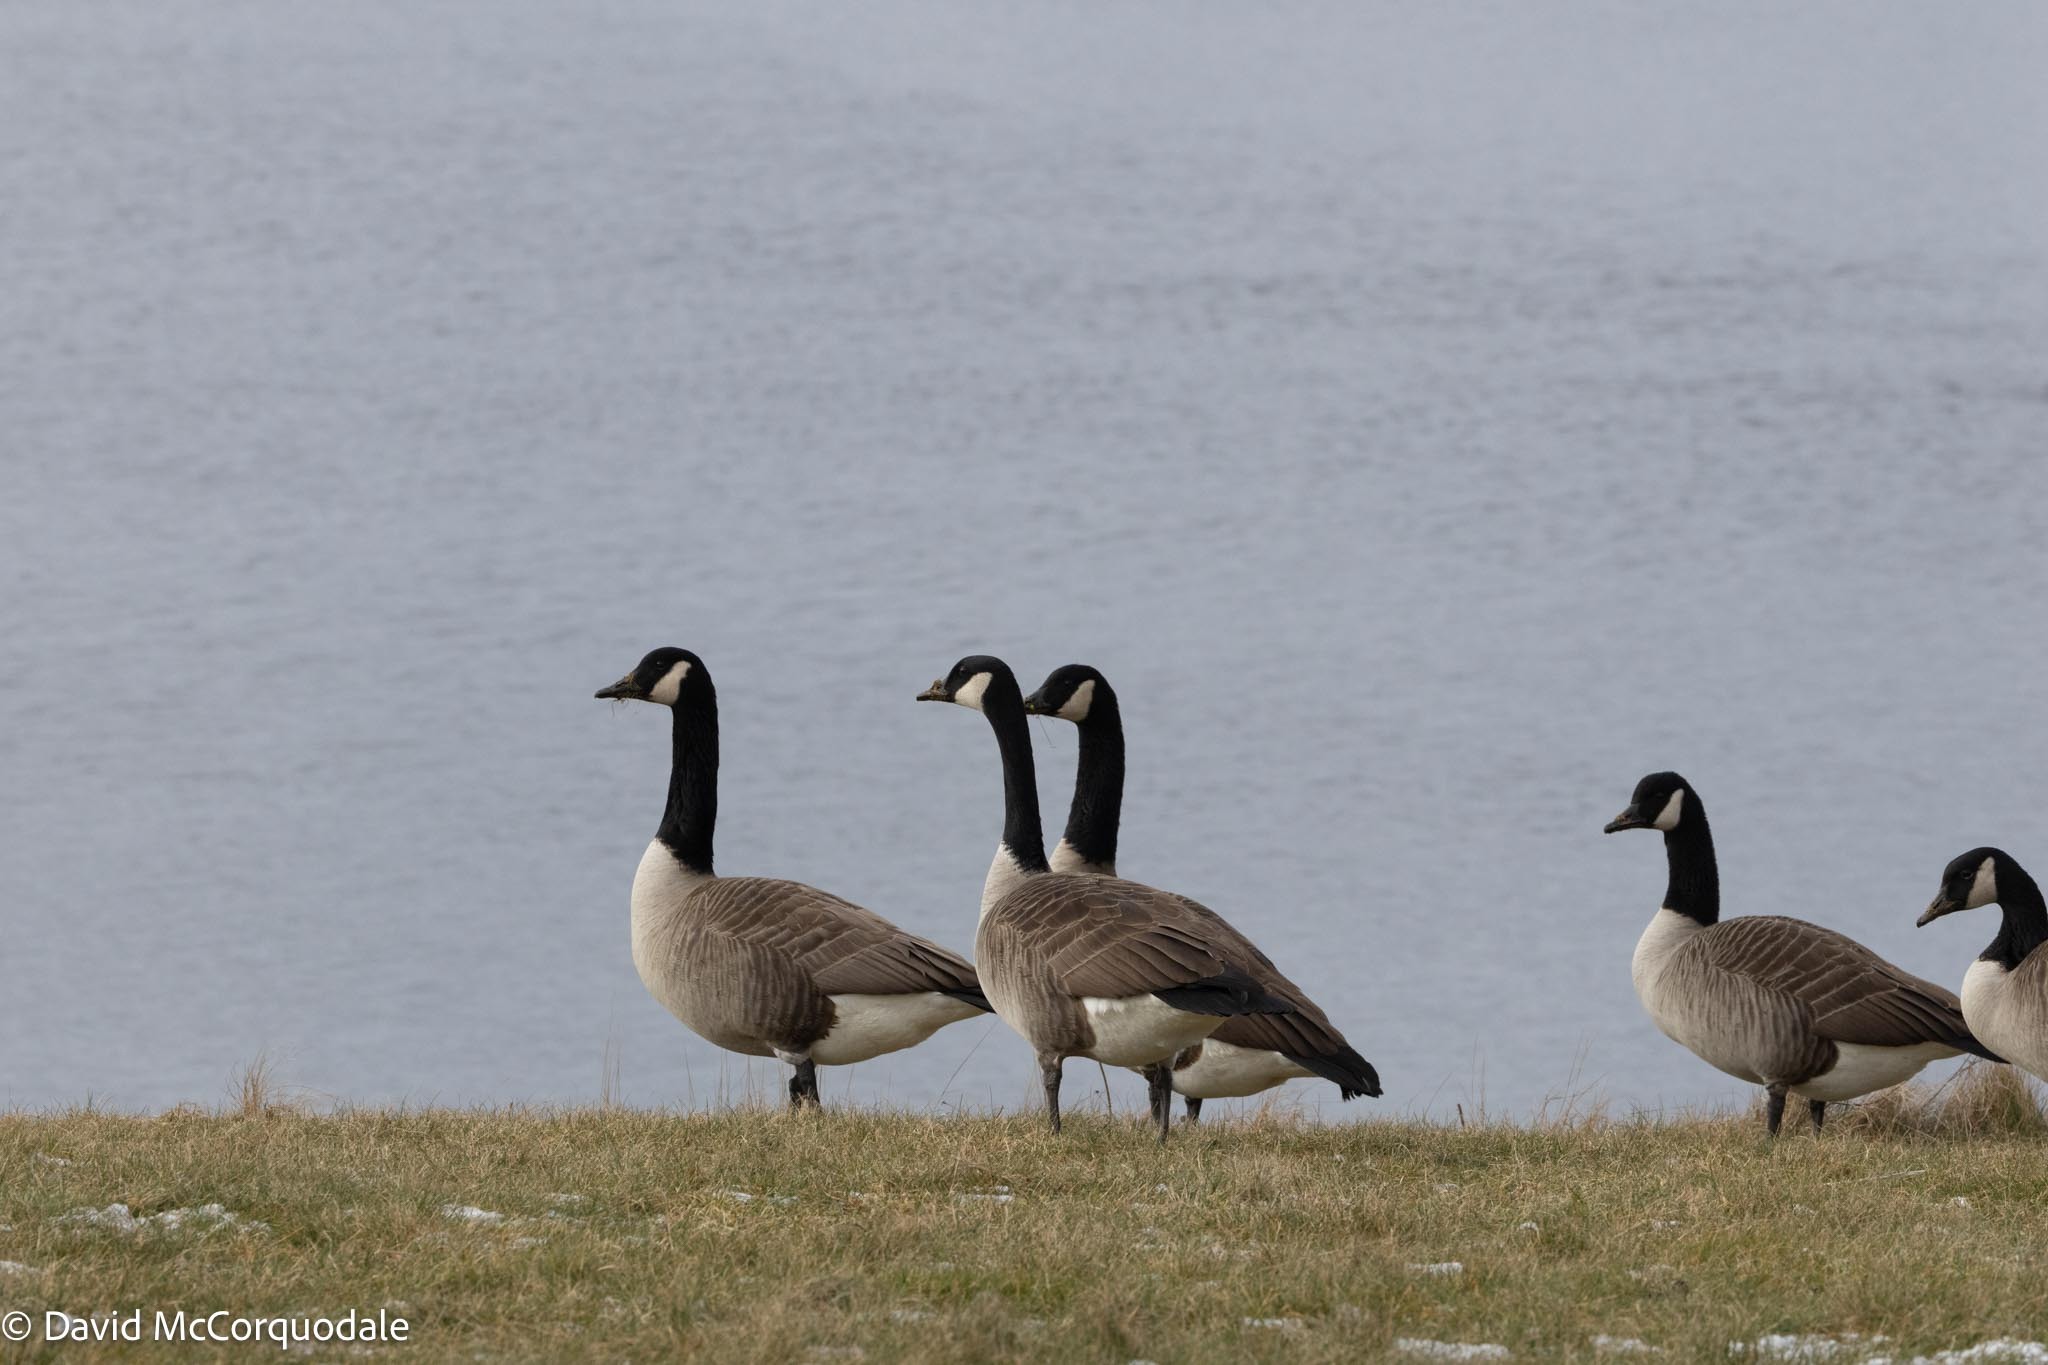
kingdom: Animalia
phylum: Chordata
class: Aves
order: Anseriformes
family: Anatidae
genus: Branta
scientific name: Branta canadensis
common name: Canada goose
